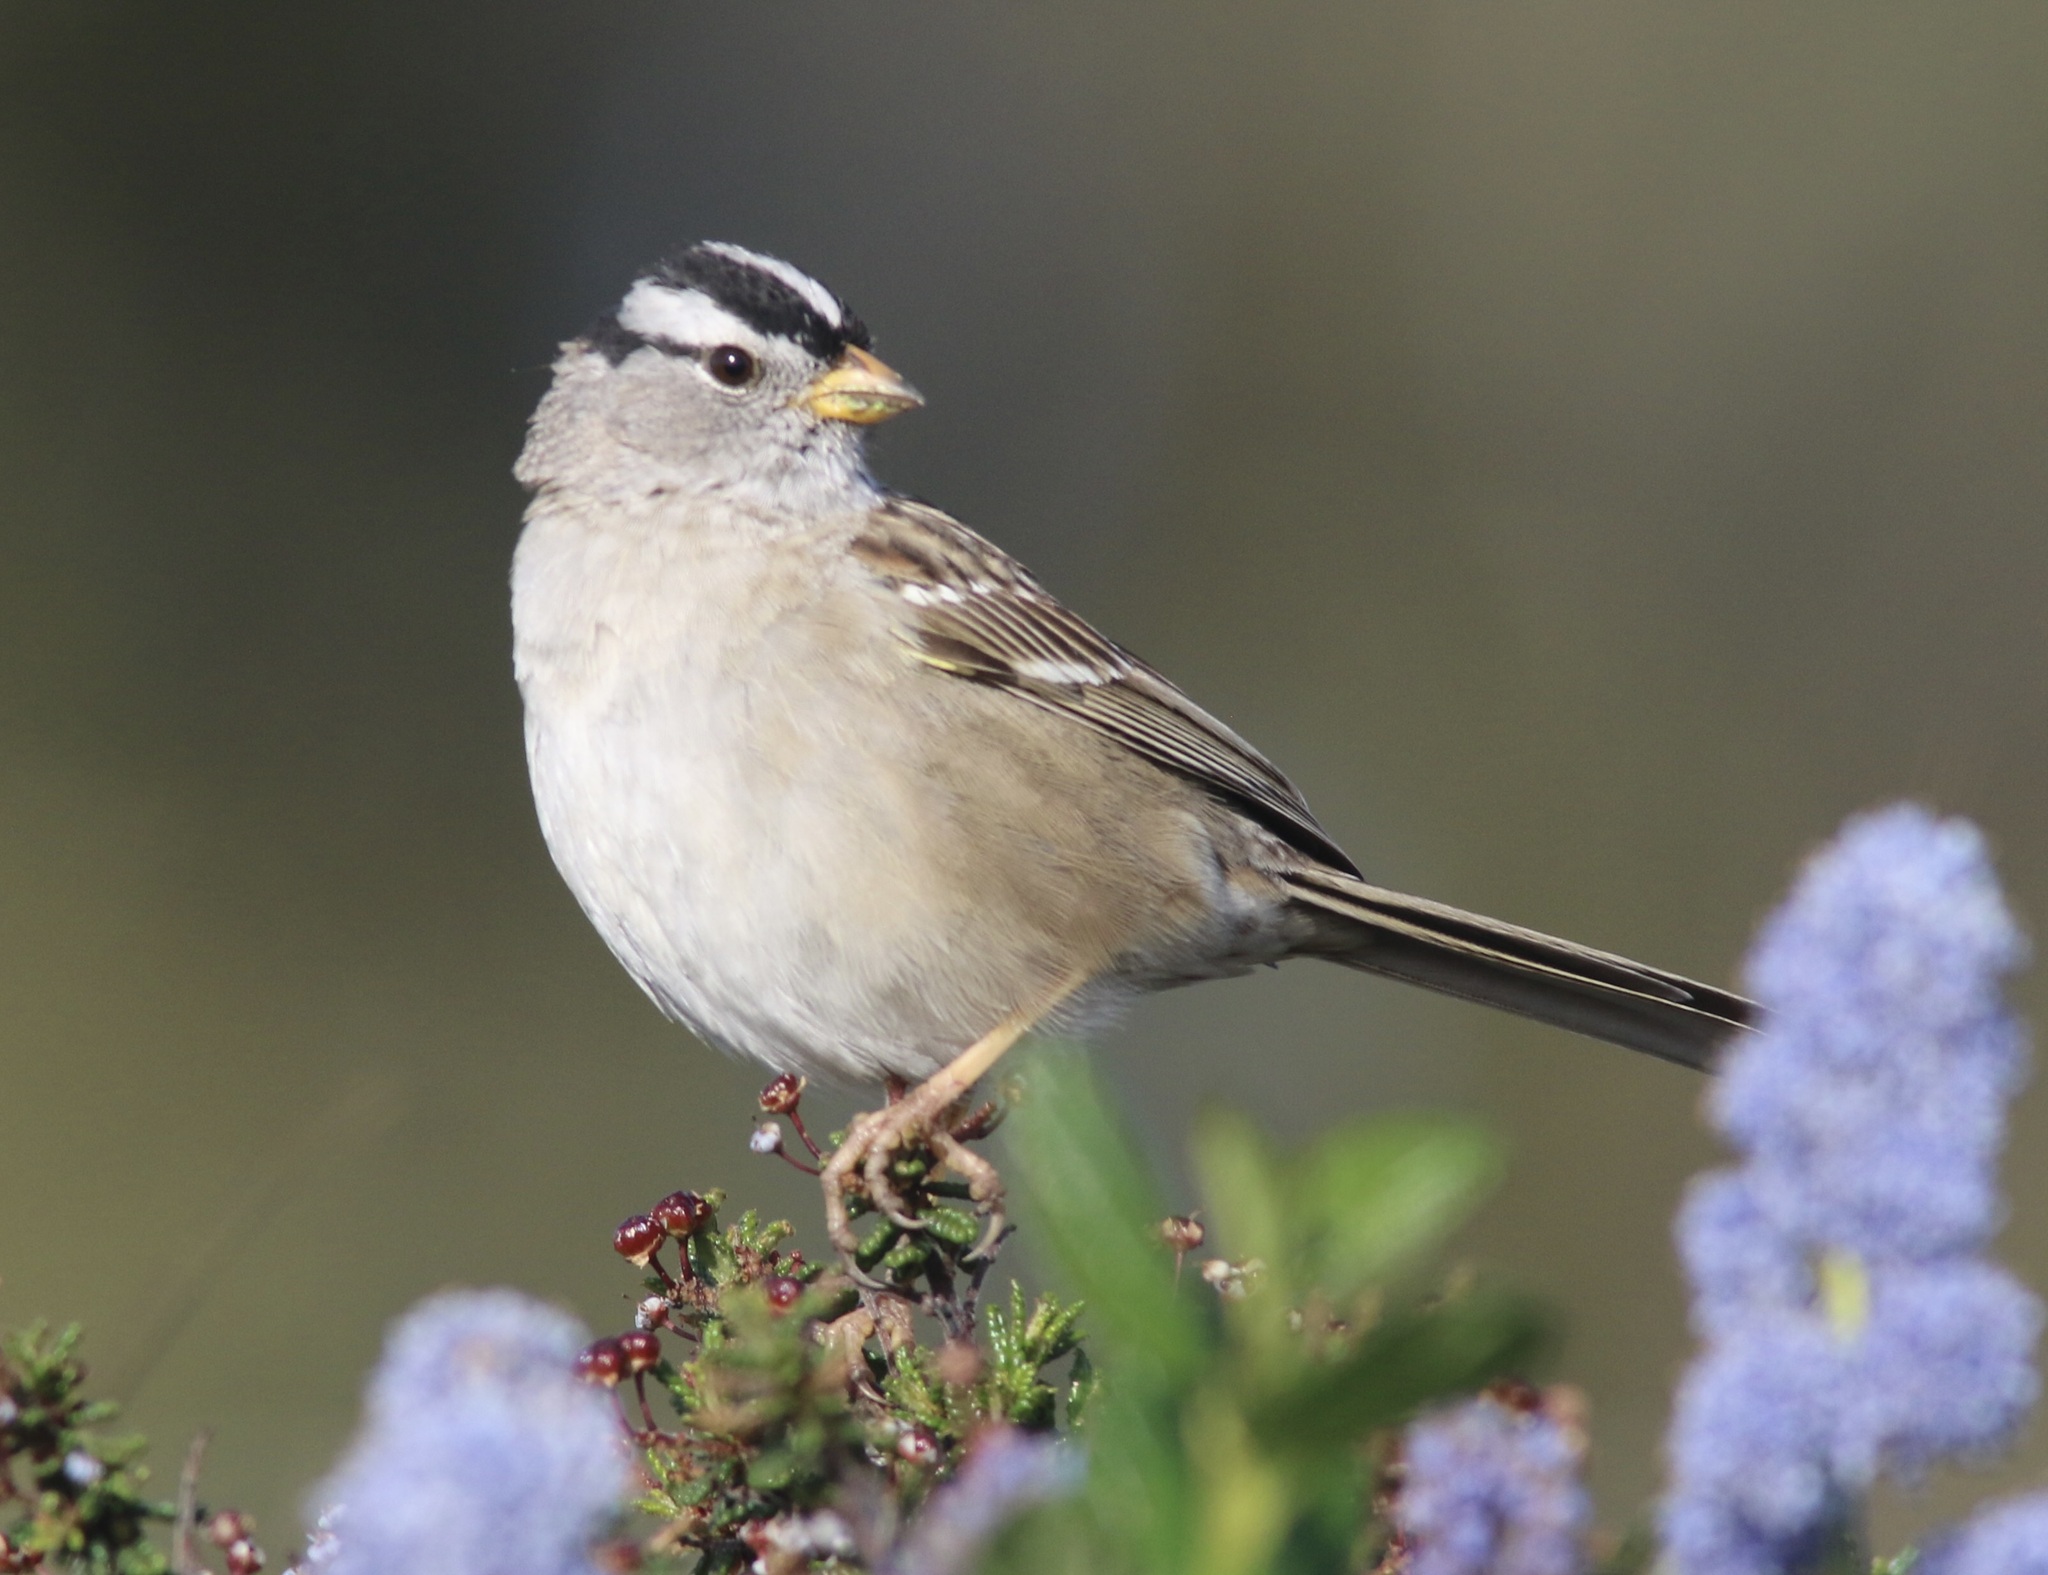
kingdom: Animalia
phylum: Chordata
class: Aves
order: Passeriformes
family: Passerellidae
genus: Zonotrichia
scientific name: Zonotrichia leucophrys
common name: White-crowned sparrow
